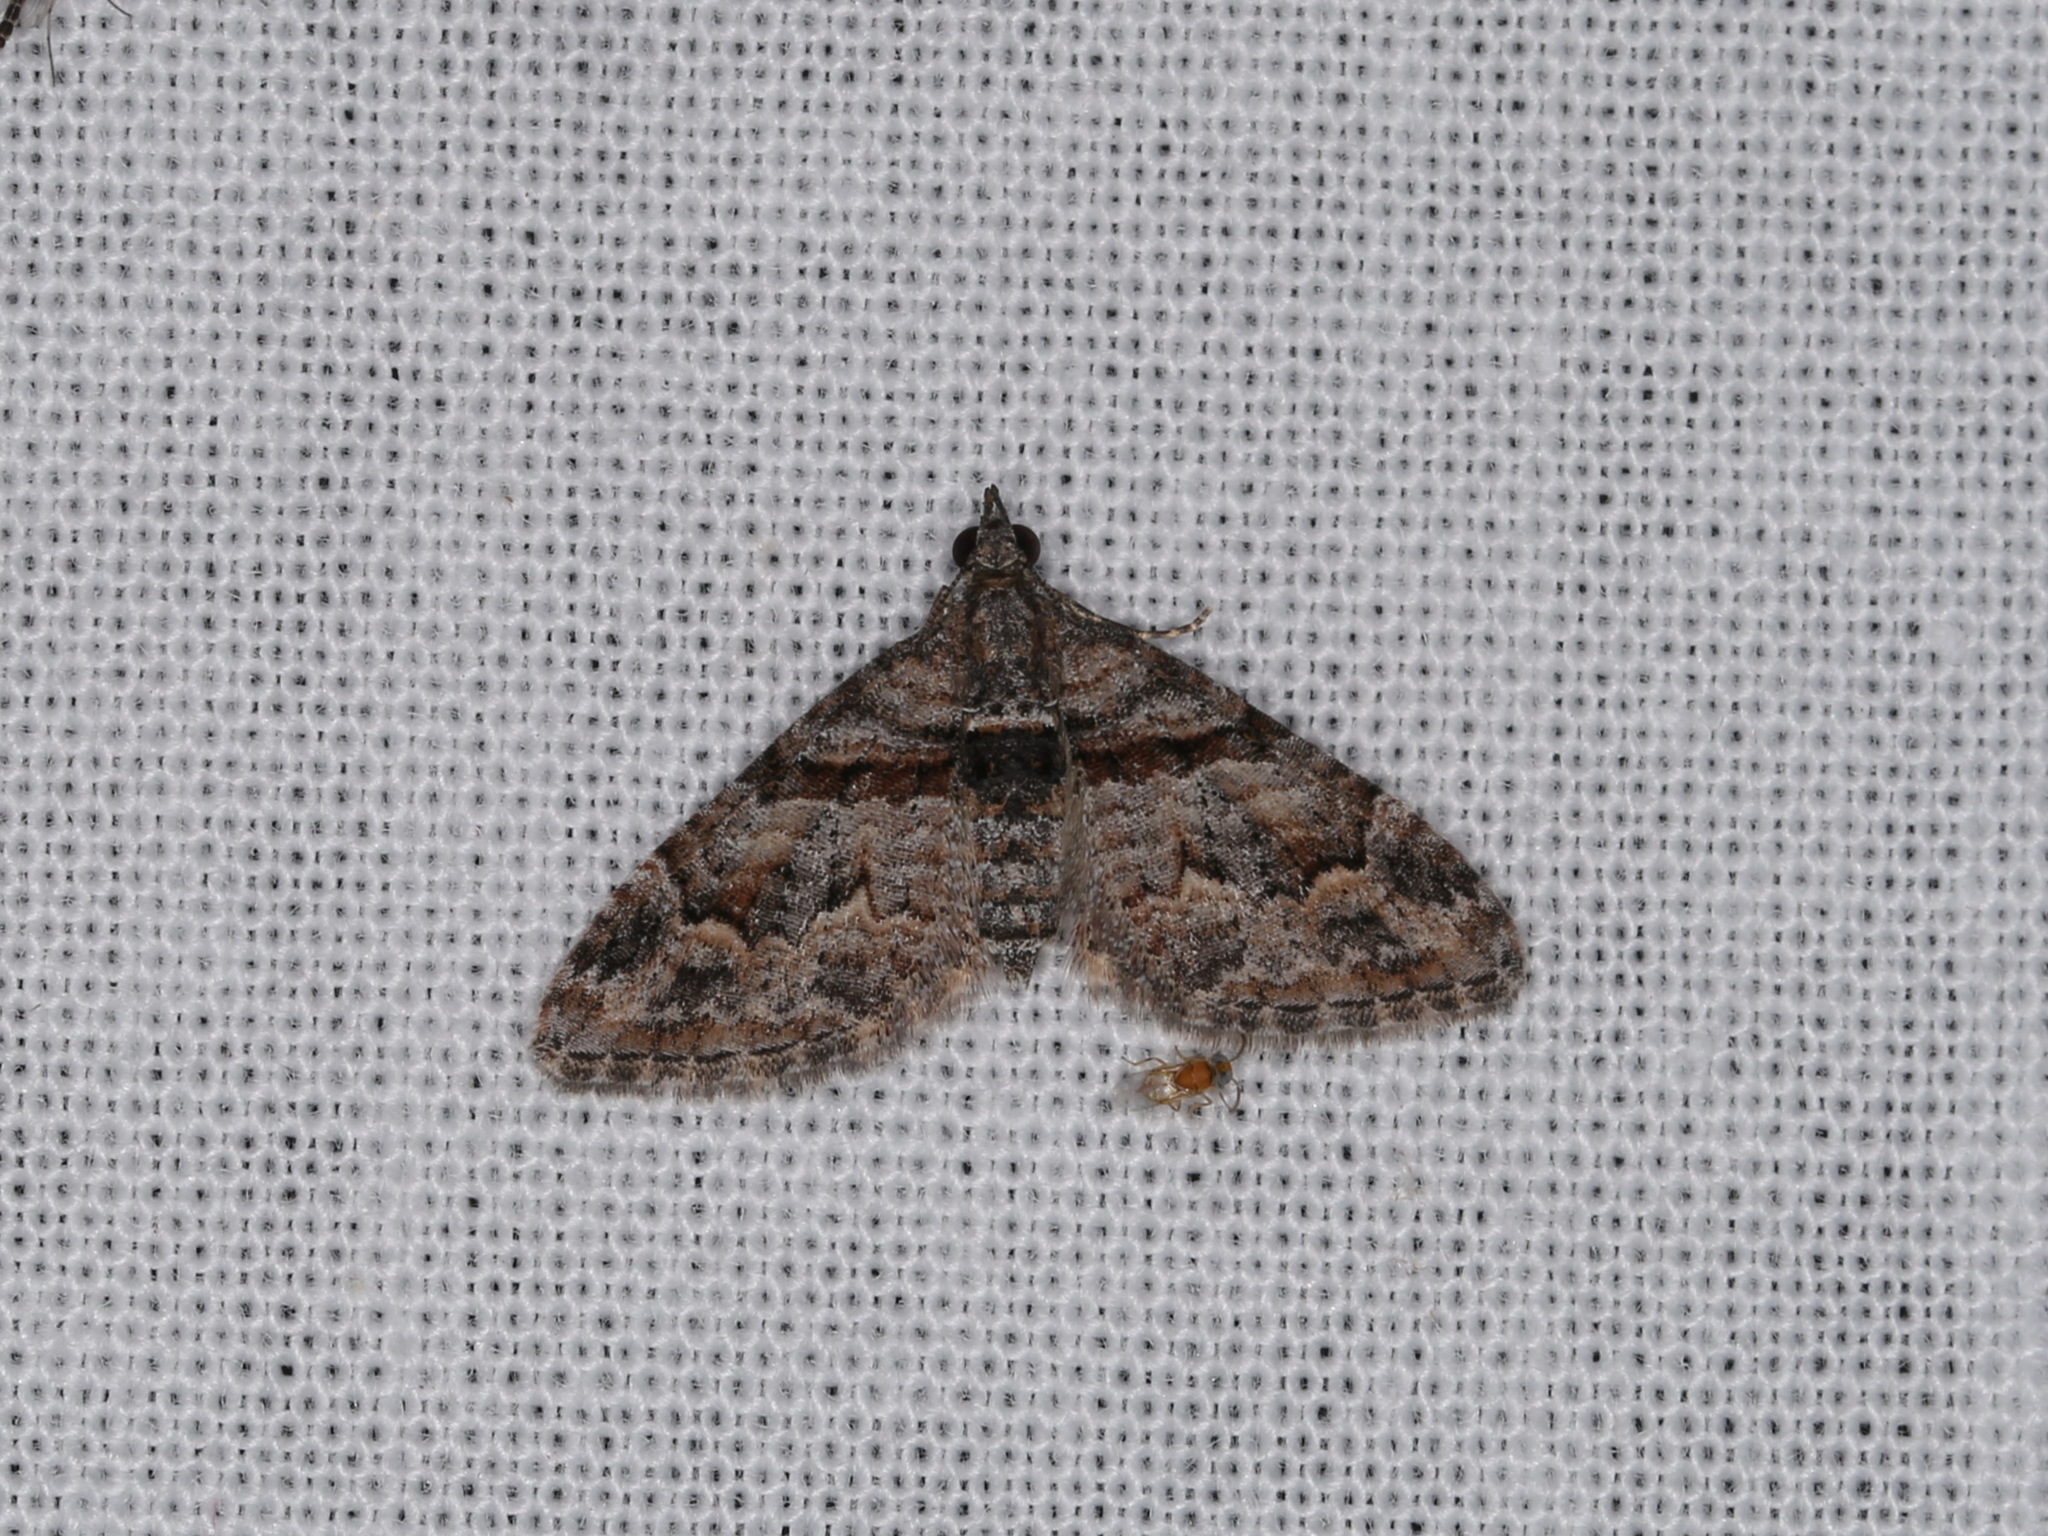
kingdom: Animalia
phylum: Arthropoda
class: Insecta
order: Lepidoptera
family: Geometridae
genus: Phrissogonus
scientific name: Phrissogonus laticostata
